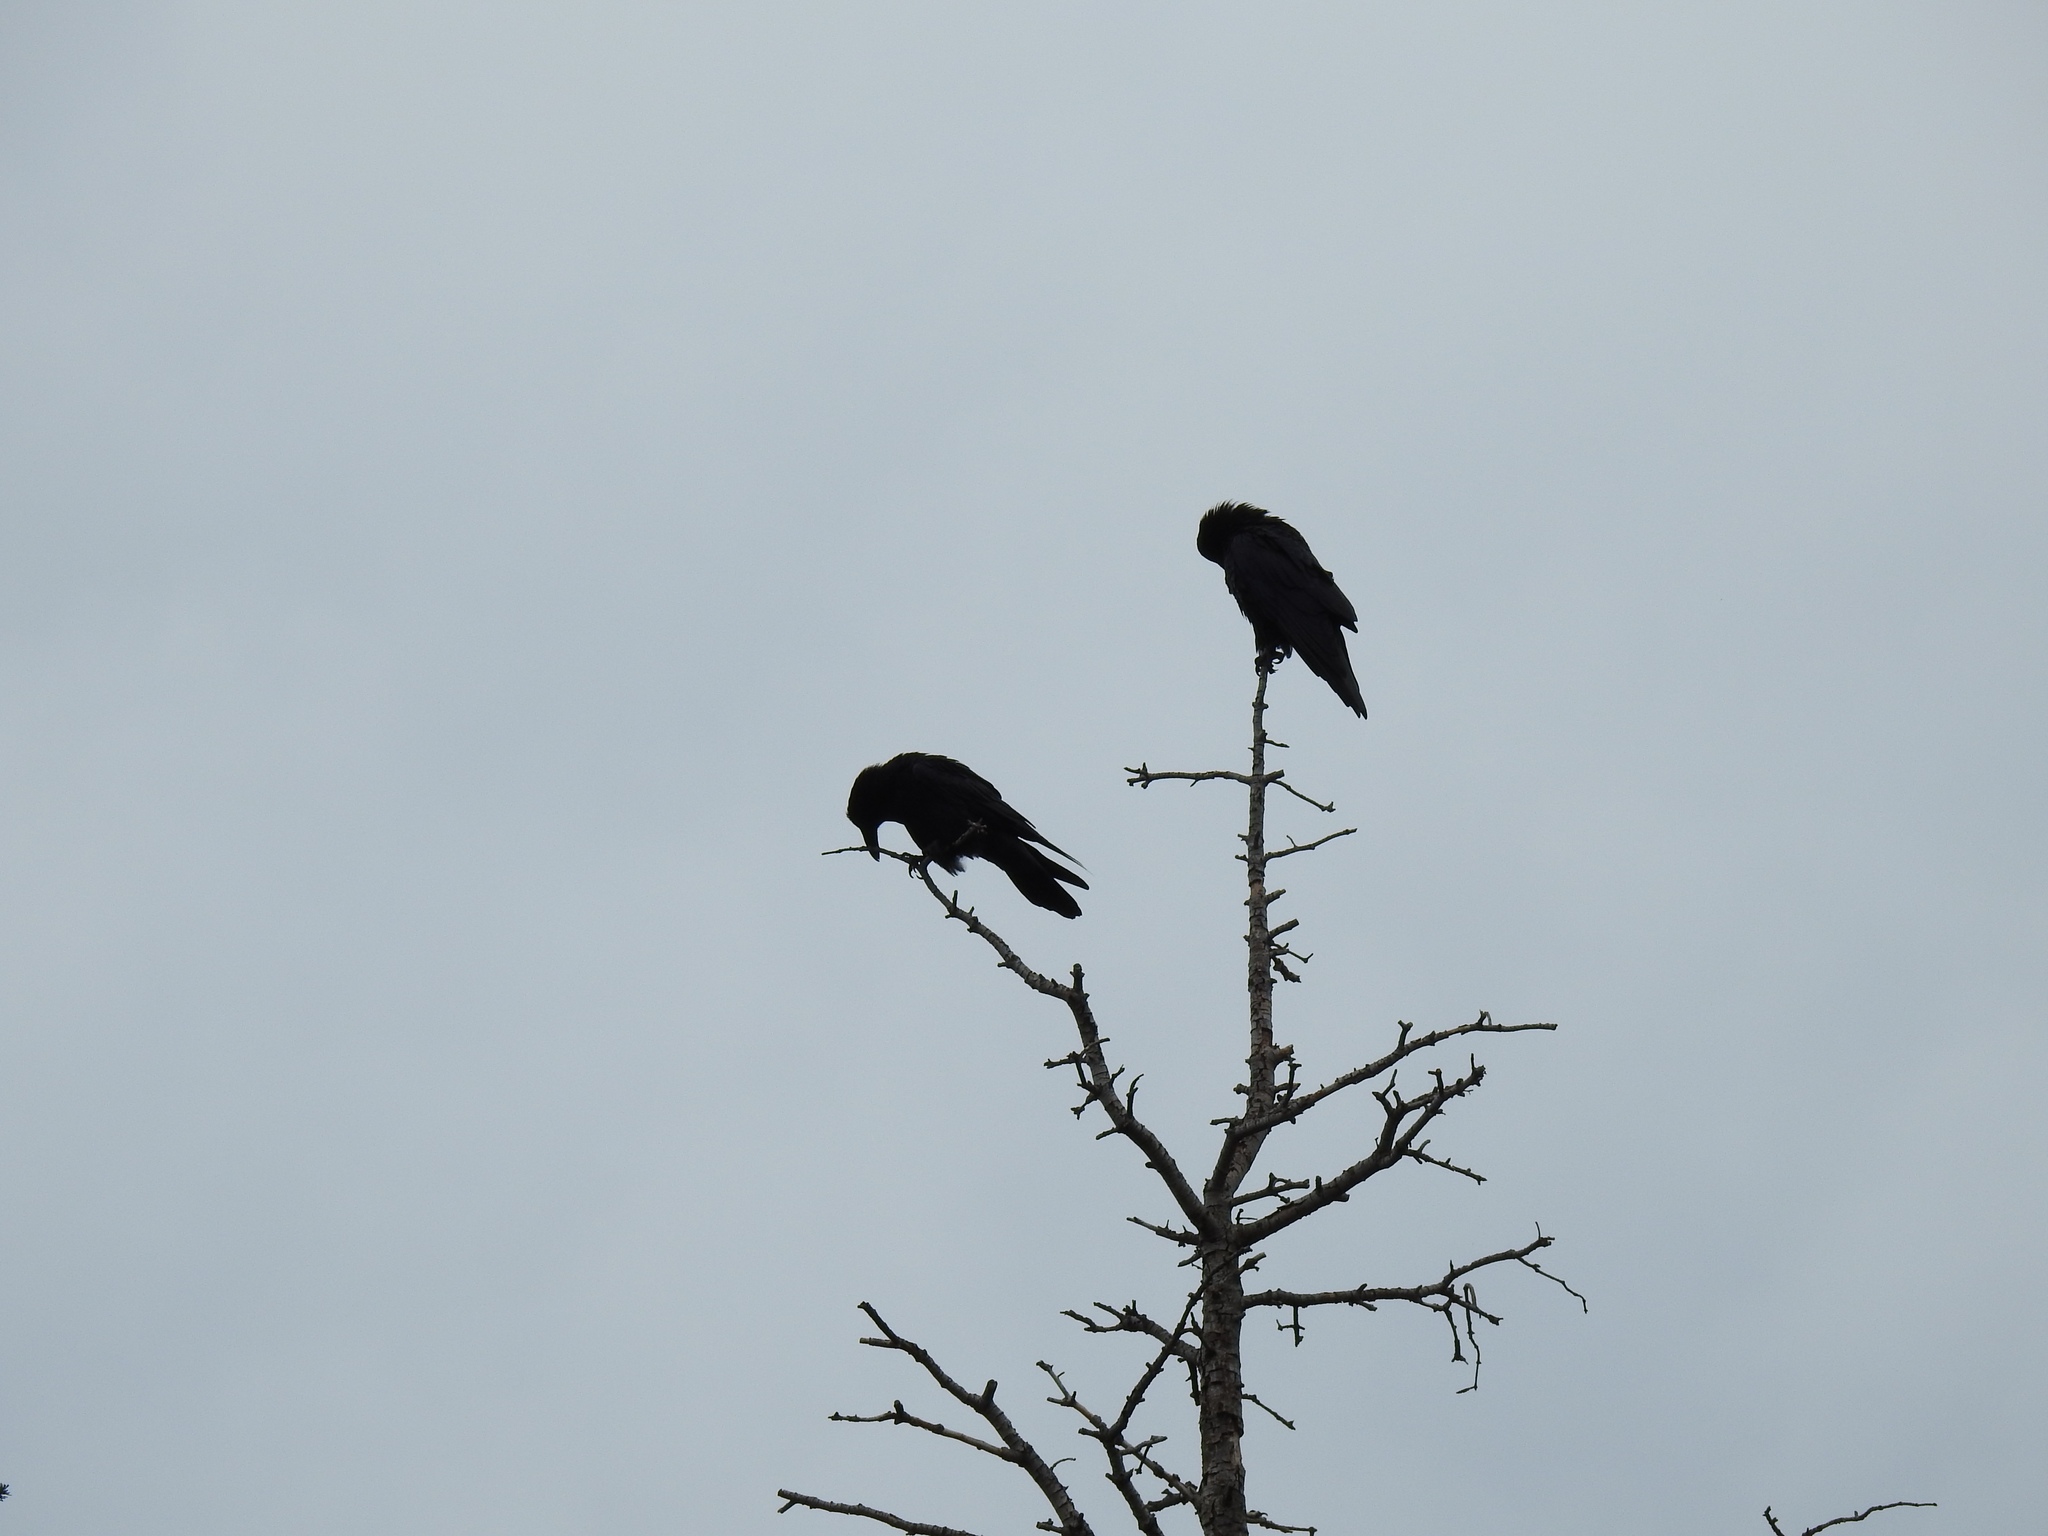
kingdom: Animalia
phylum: Chordata
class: Aves
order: Passeriformes
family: Corvidae
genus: Corvus
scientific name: Corvus corax
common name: Common raven
